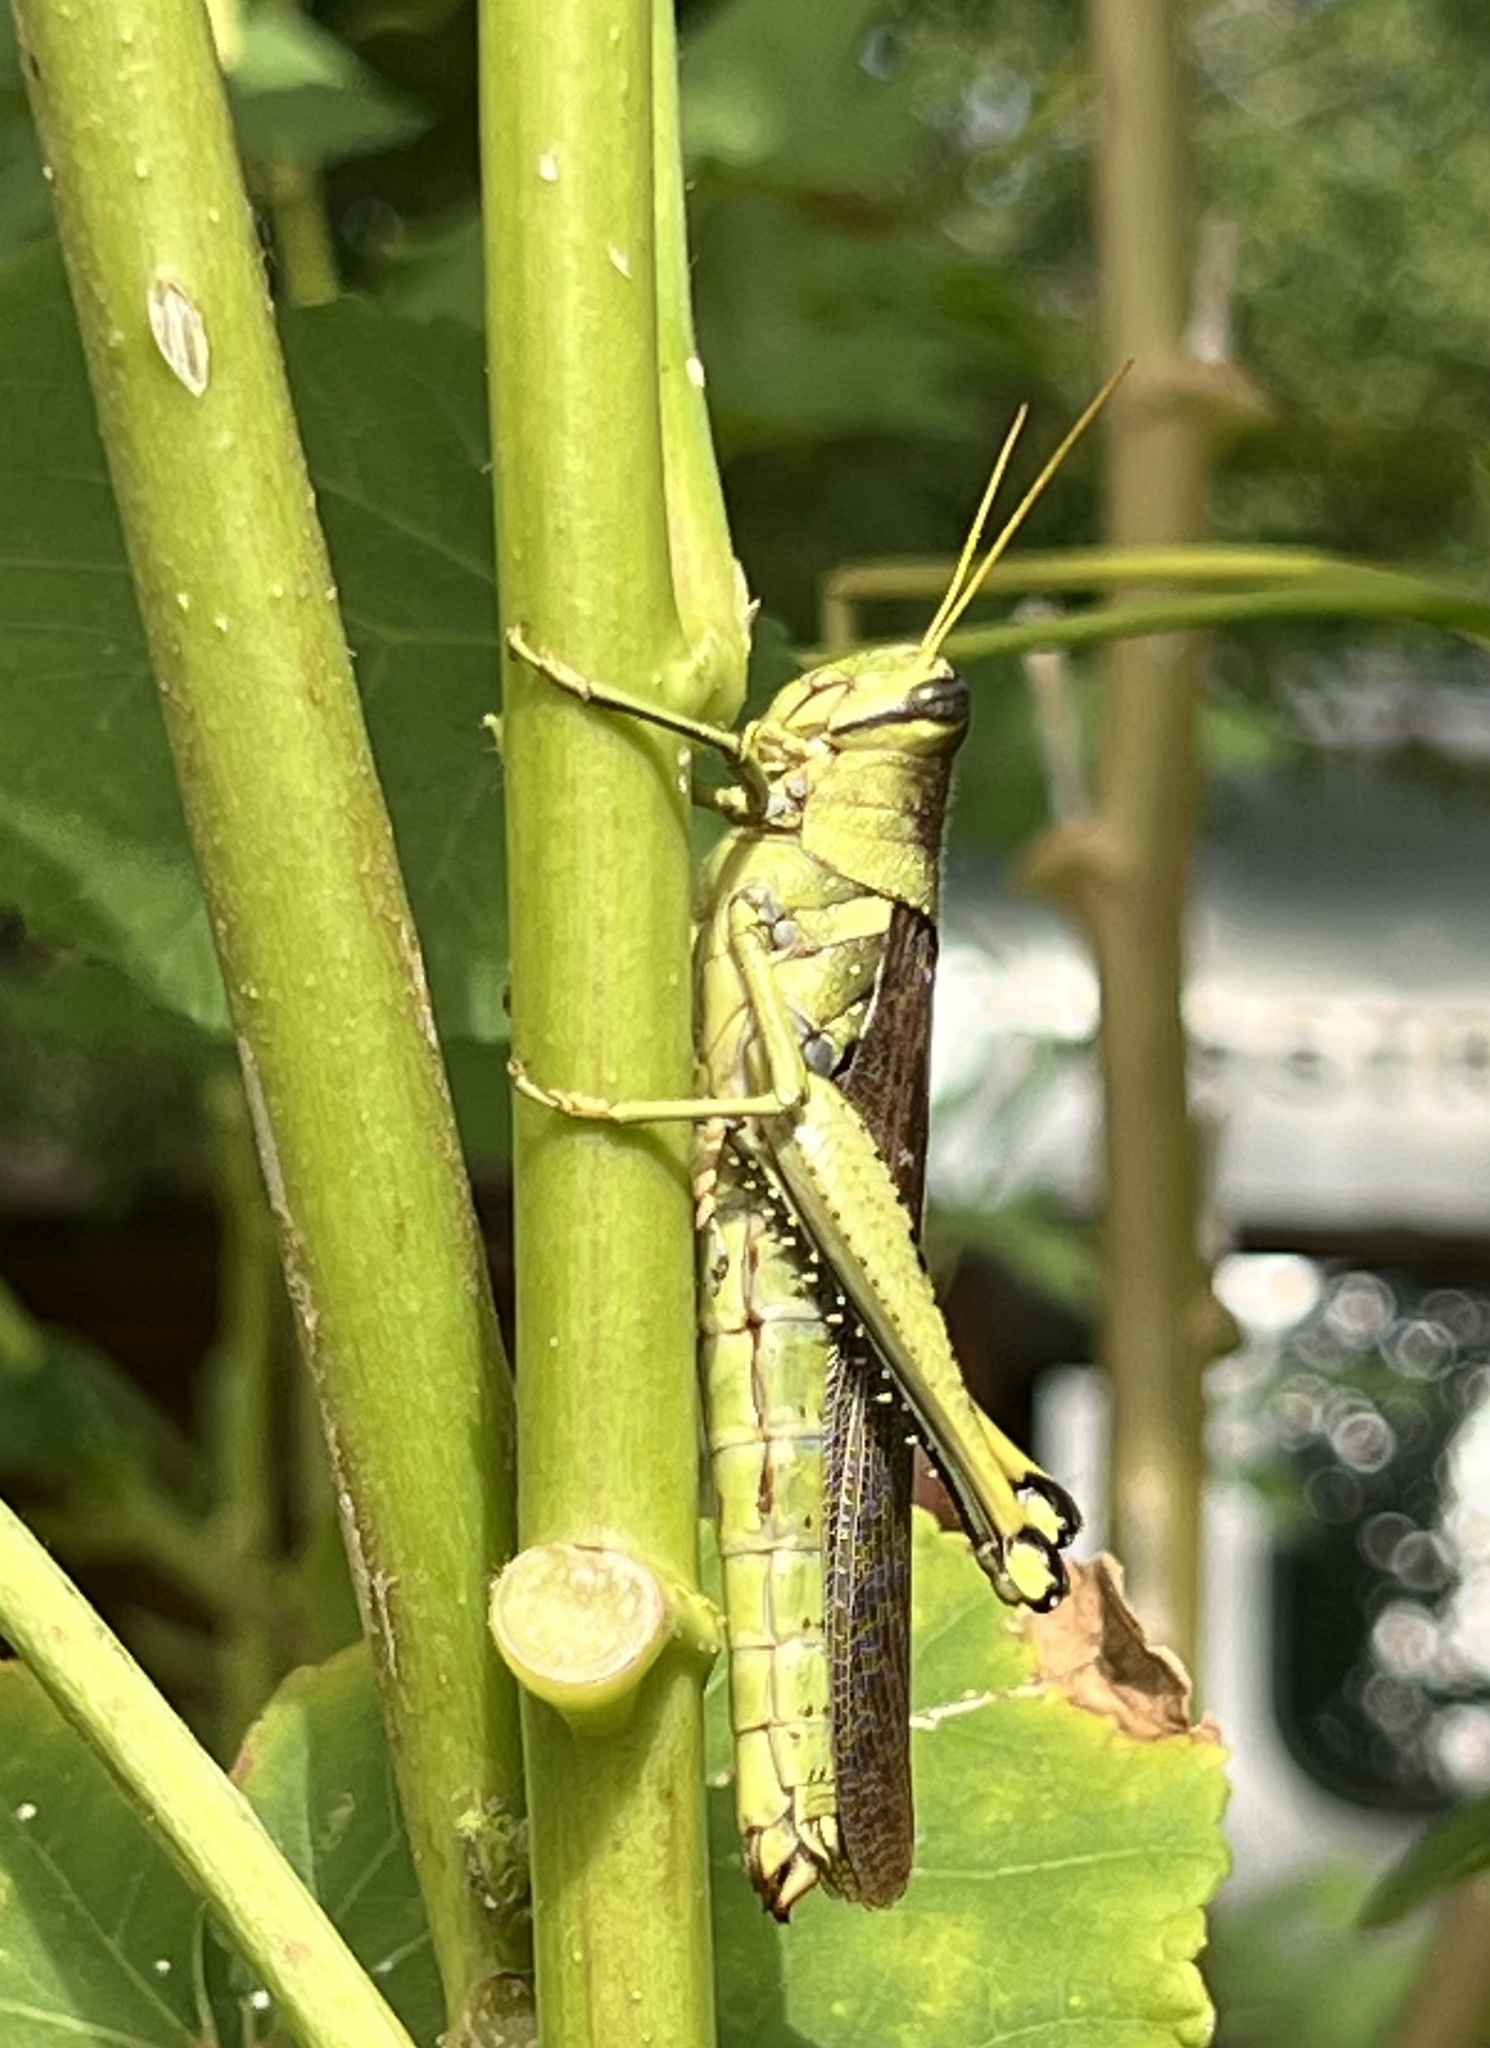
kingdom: Animalia
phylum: Arthropoda
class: Insecta
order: Orthoptera
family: Acrididae
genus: Schistocerca
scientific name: Schistocerca obscura
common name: Obscure bird grasshopper
